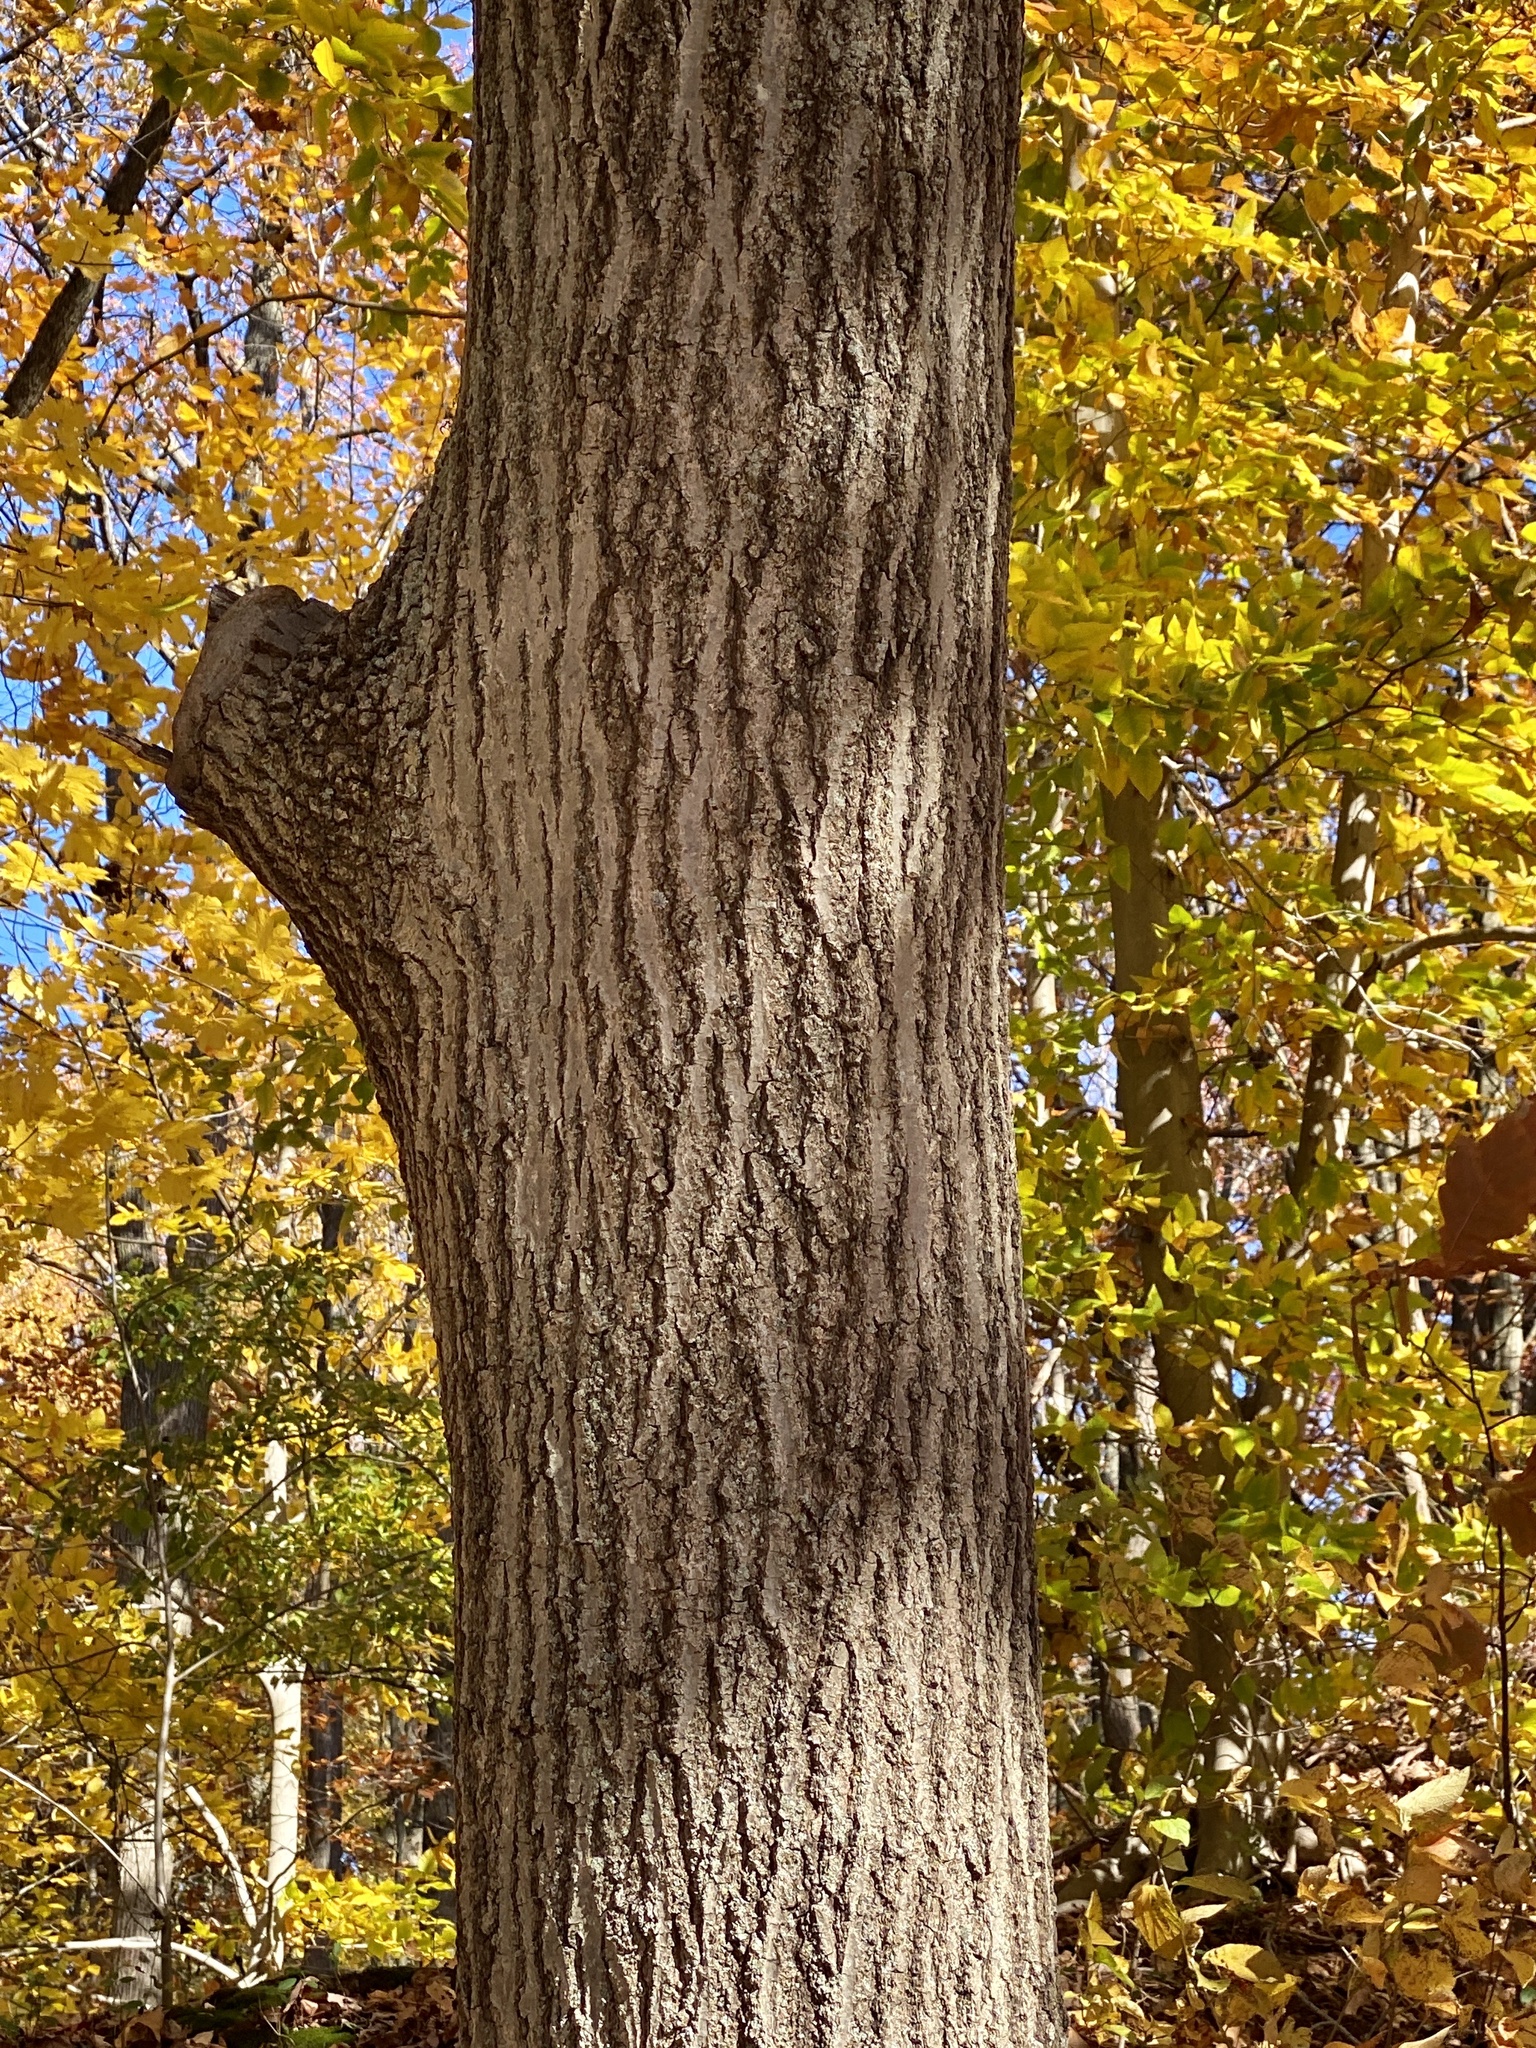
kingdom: Plantae
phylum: Tracheophyta
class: Magnoliopsida
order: Fagales
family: Fagaceae
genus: Quercus
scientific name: Quercus rubra
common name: Red oak
